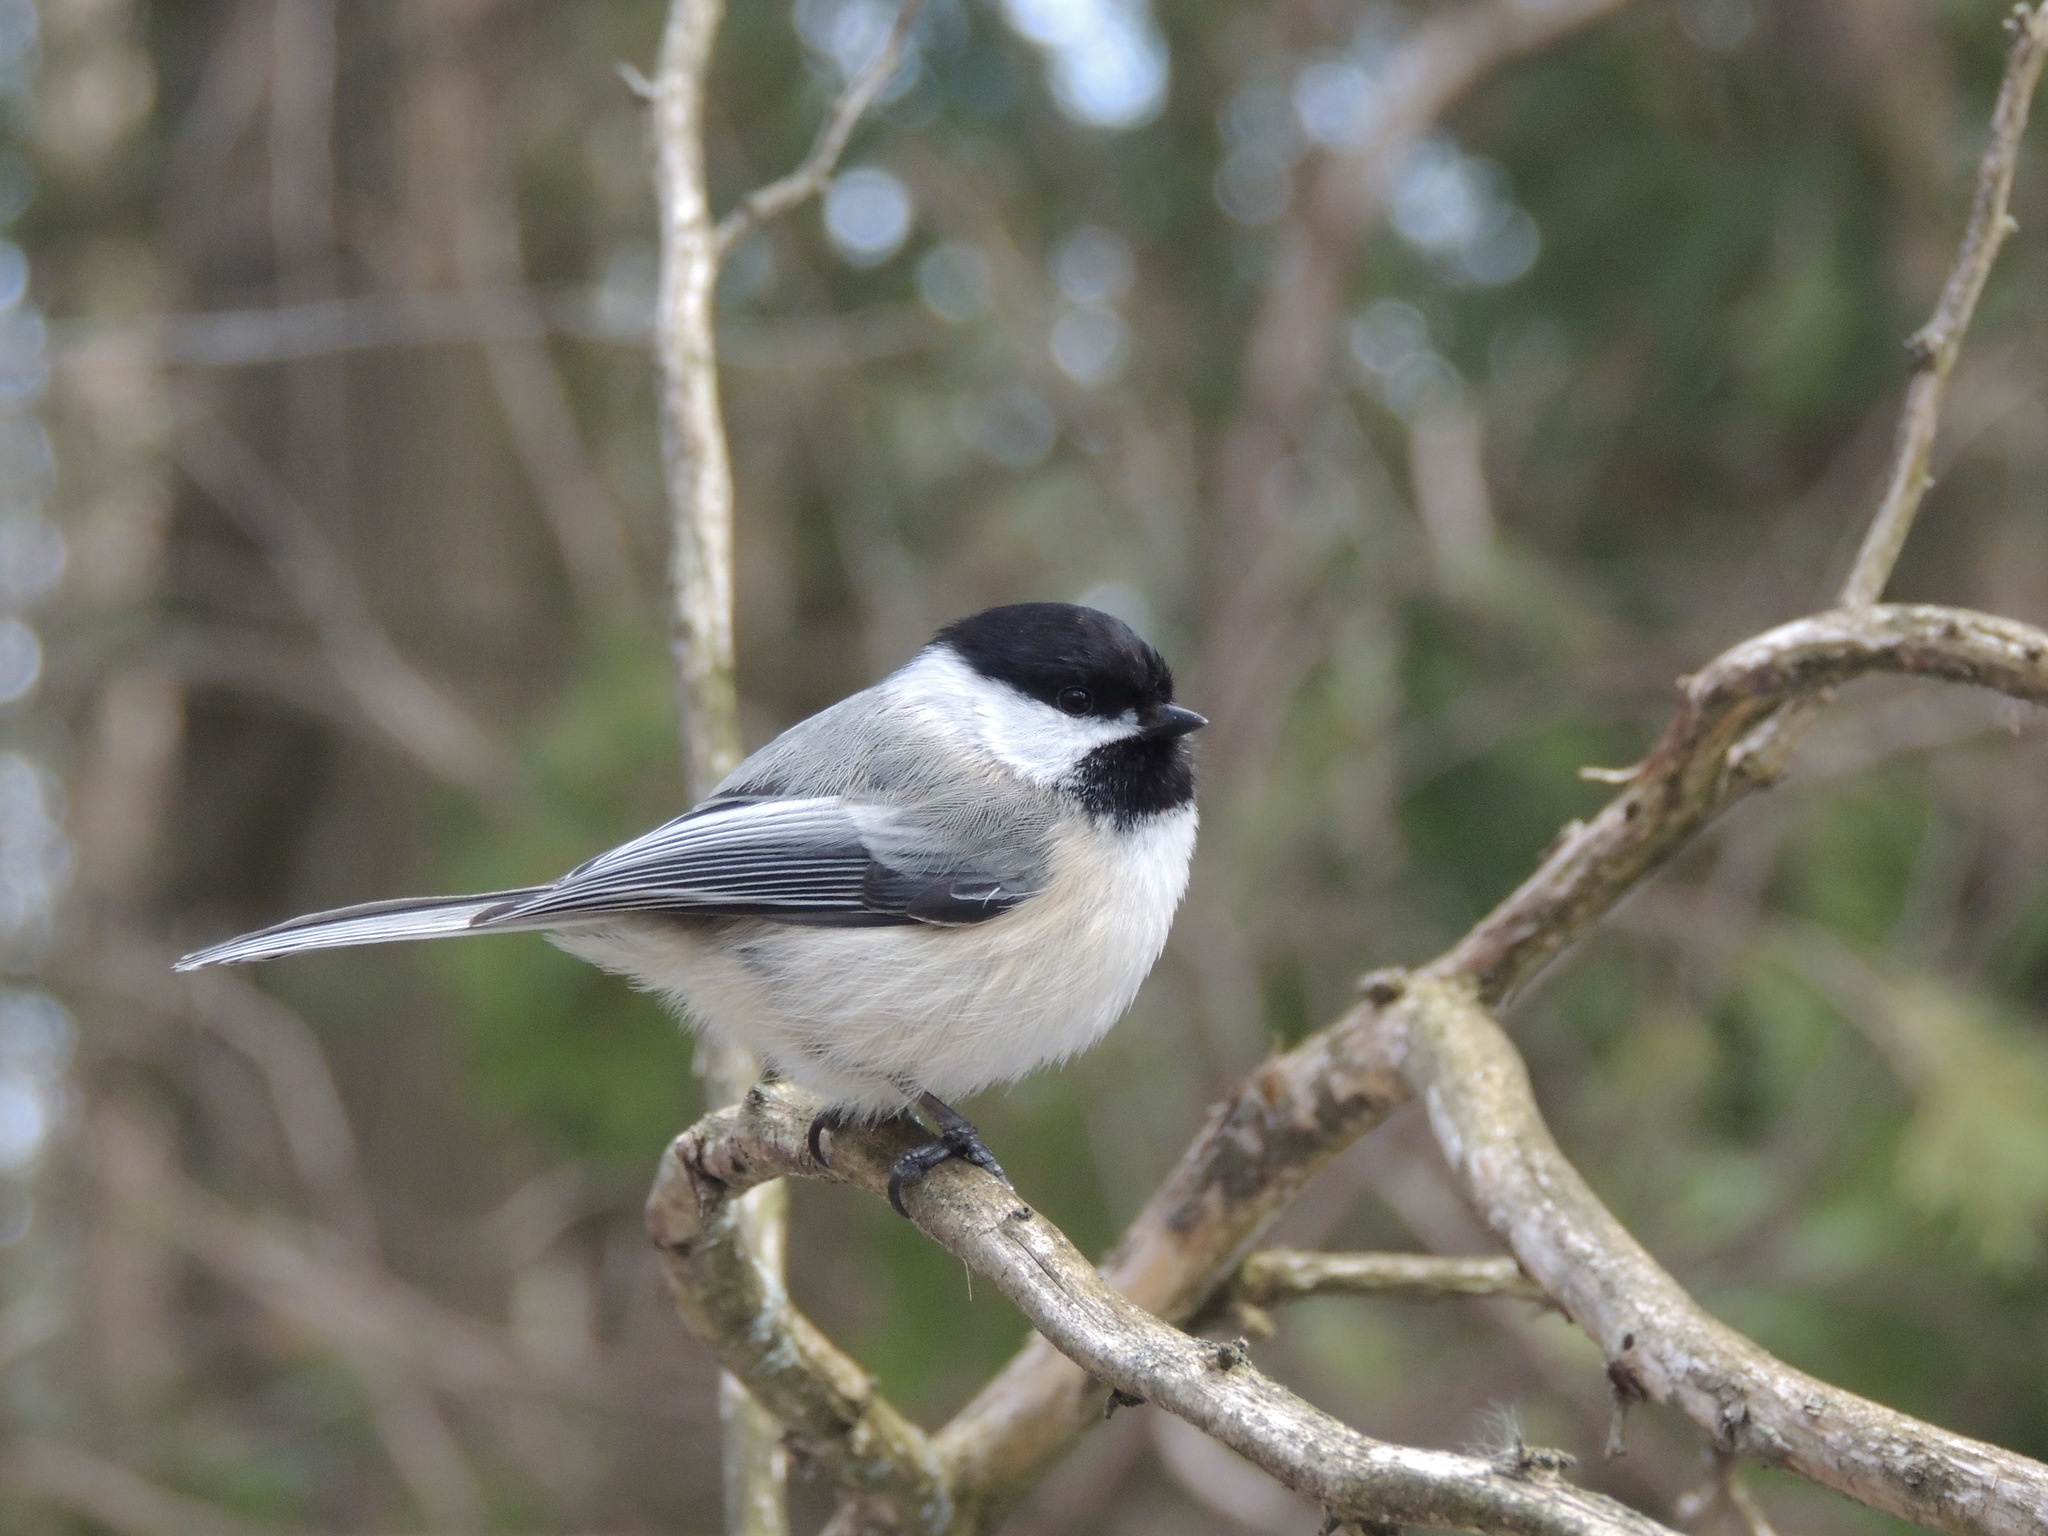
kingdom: Animalia
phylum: Chordata
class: Aves
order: Passeriformes
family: Paridae
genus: Poecile
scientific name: Poecile atricapillus
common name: Black-capped chickadee
